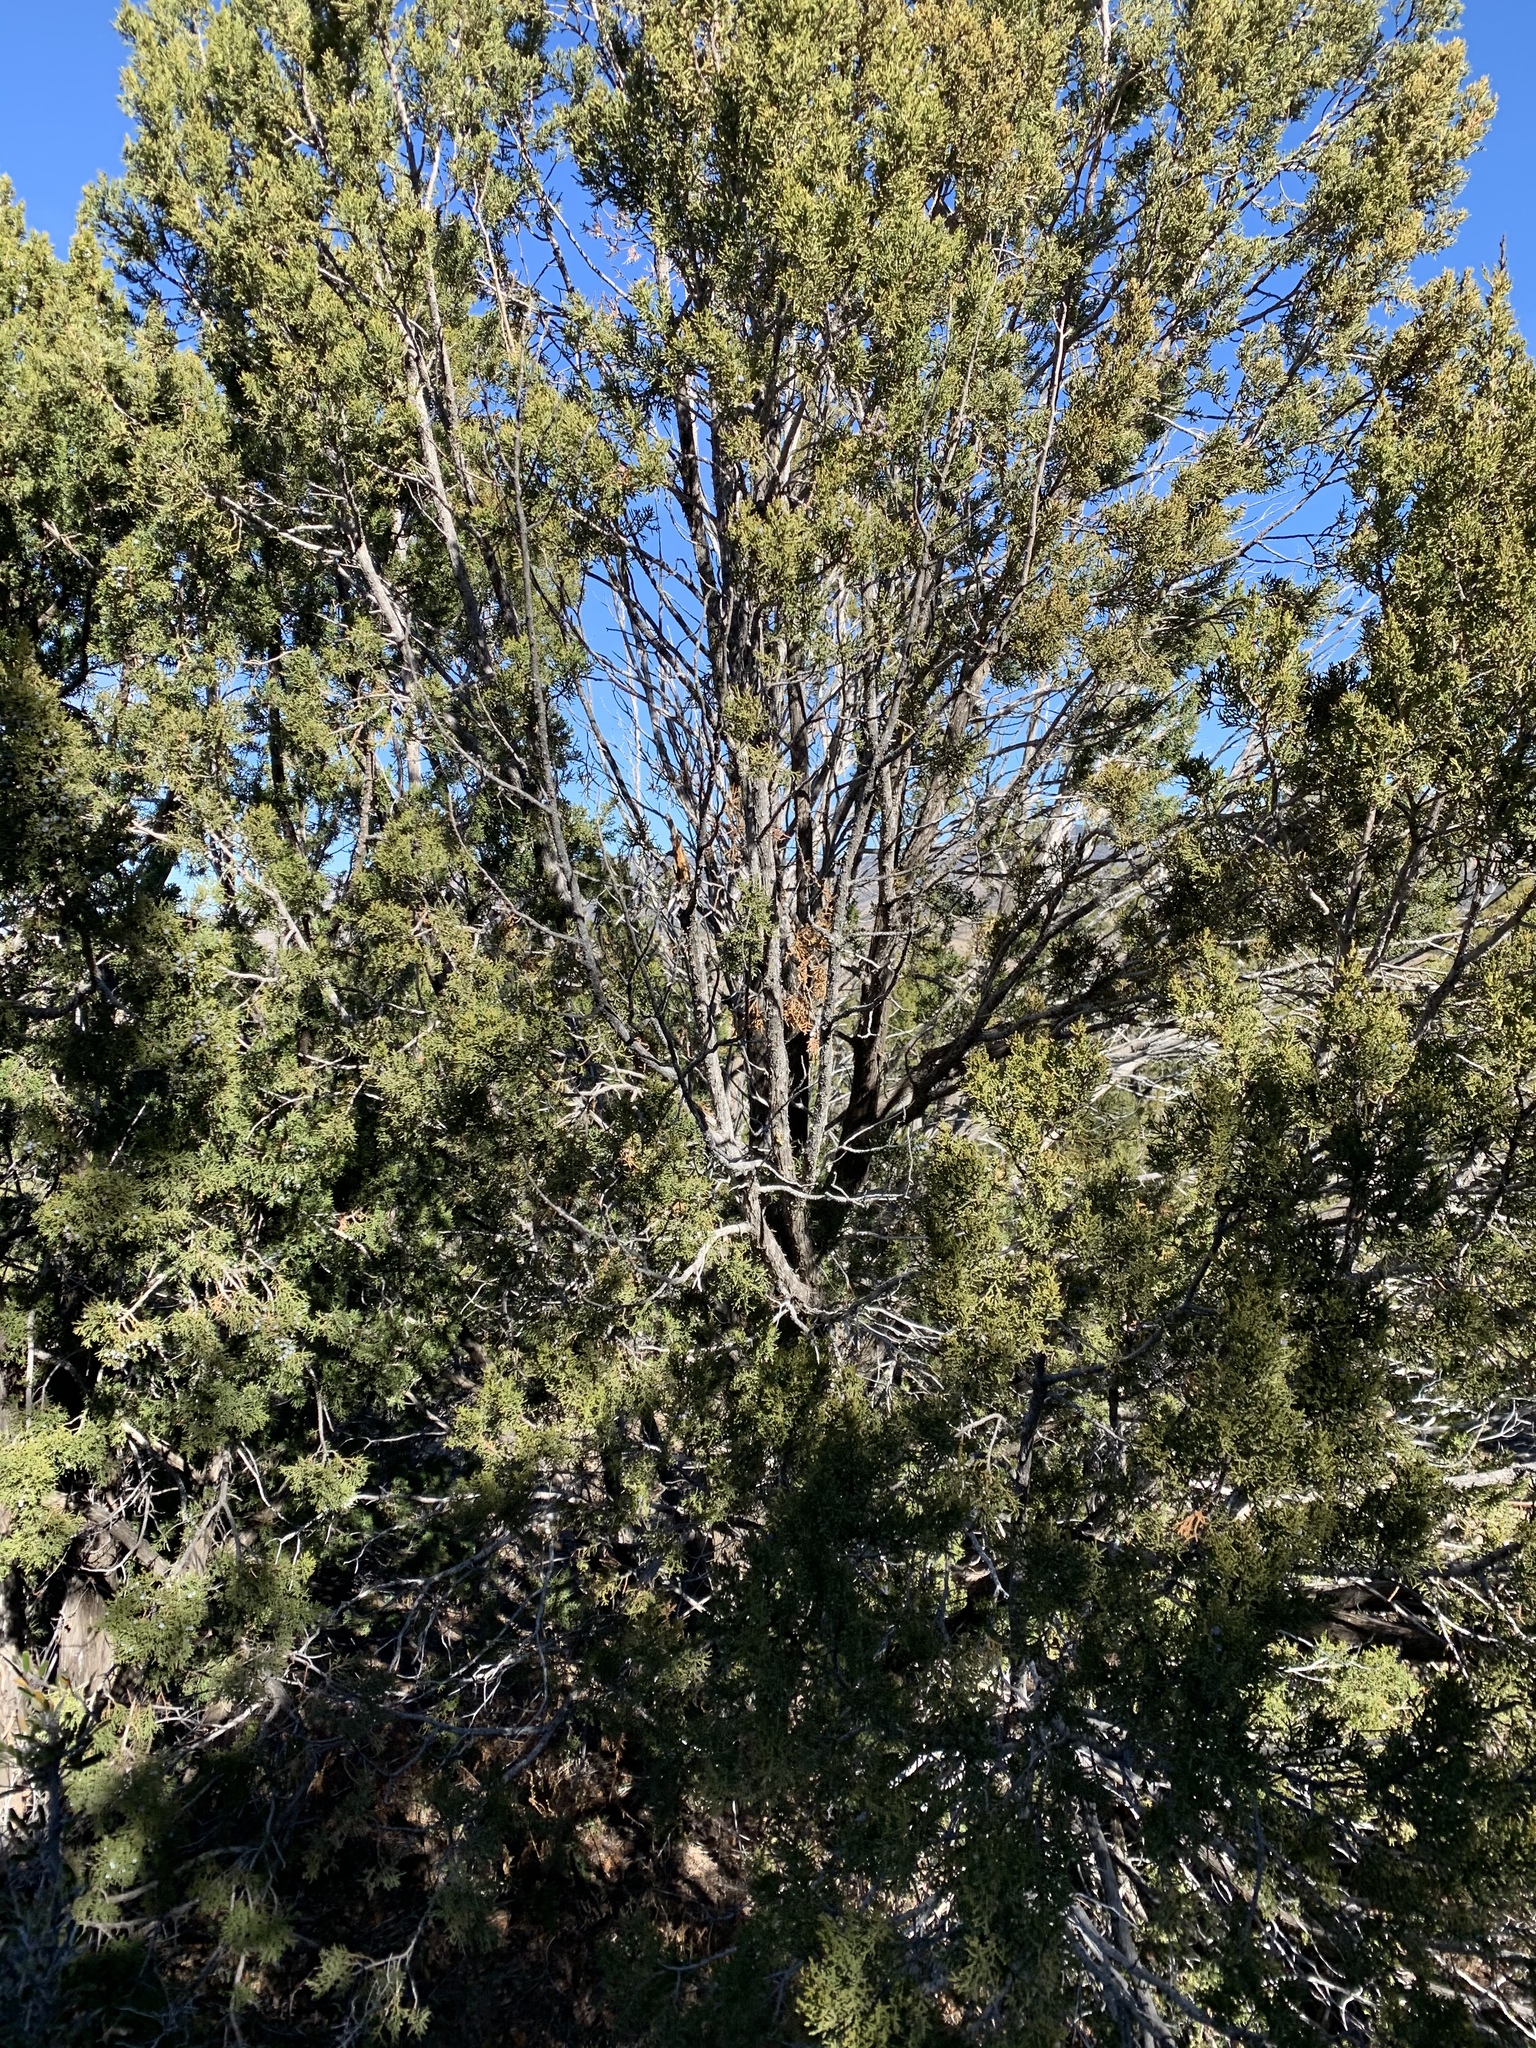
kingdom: Plantae
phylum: Tracheophyta
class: Pinopsida
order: Pinales
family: Cupressaceae
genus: Juniperus
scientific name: Juniperus monosperma
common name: One-seed juniper
